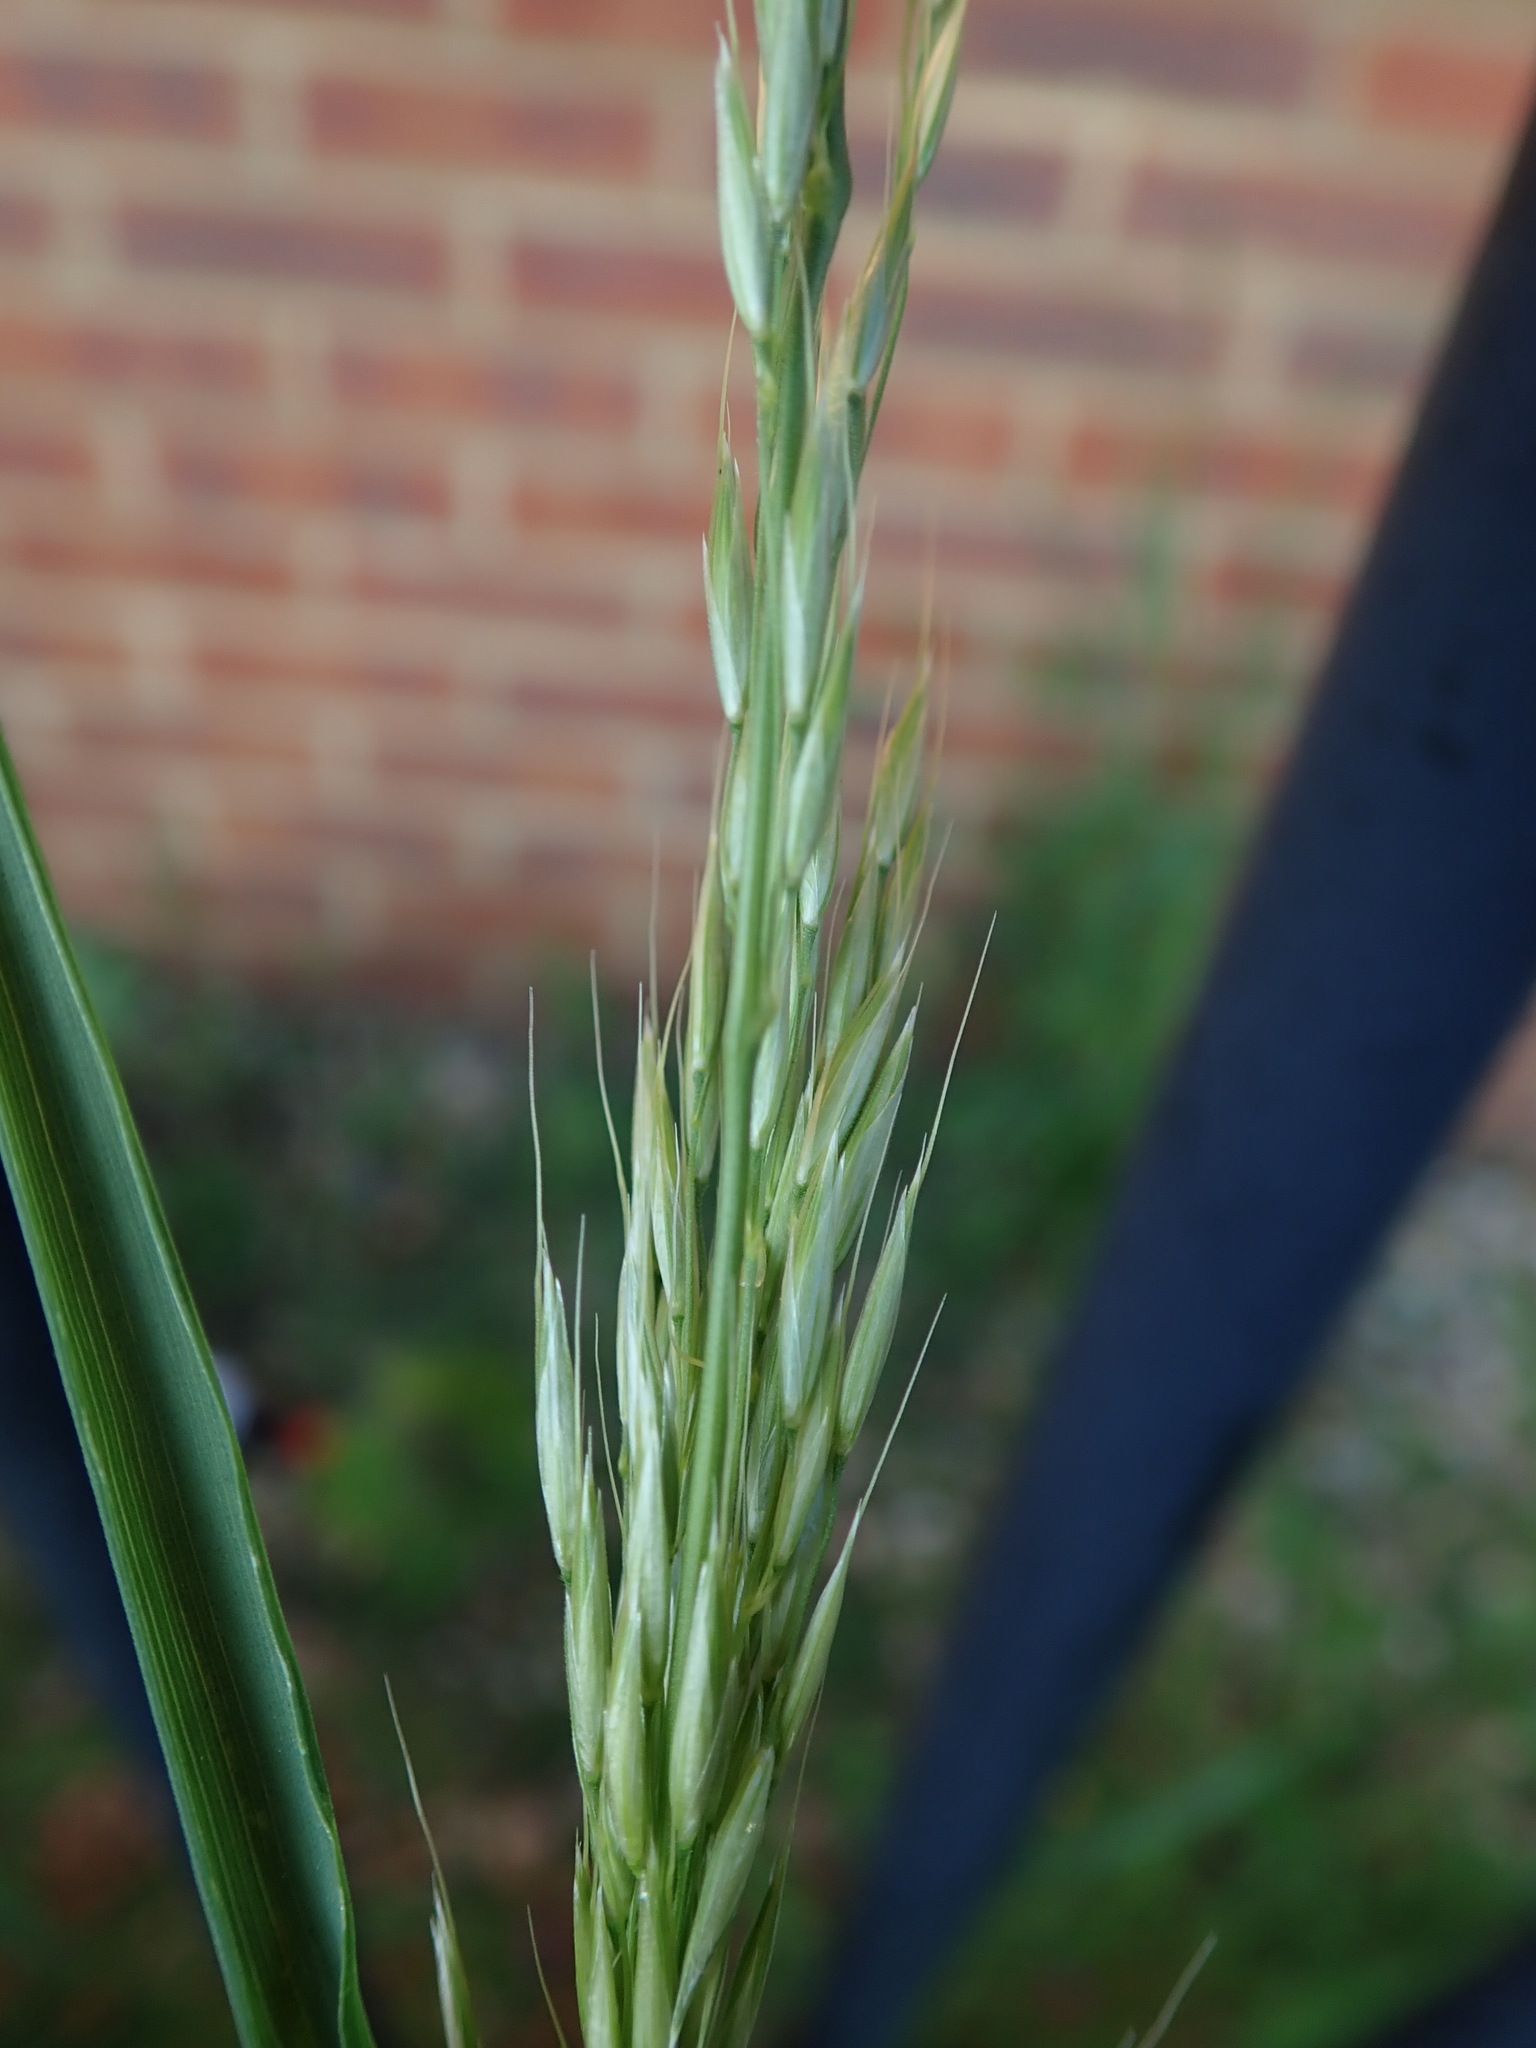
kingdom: Plantae
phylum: Tracheophyta
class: Liliopsida
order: Poales
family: Poaceae
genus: Arrhenatherum
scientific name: Arrhenatherum elatius
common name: Tall oatgrass
